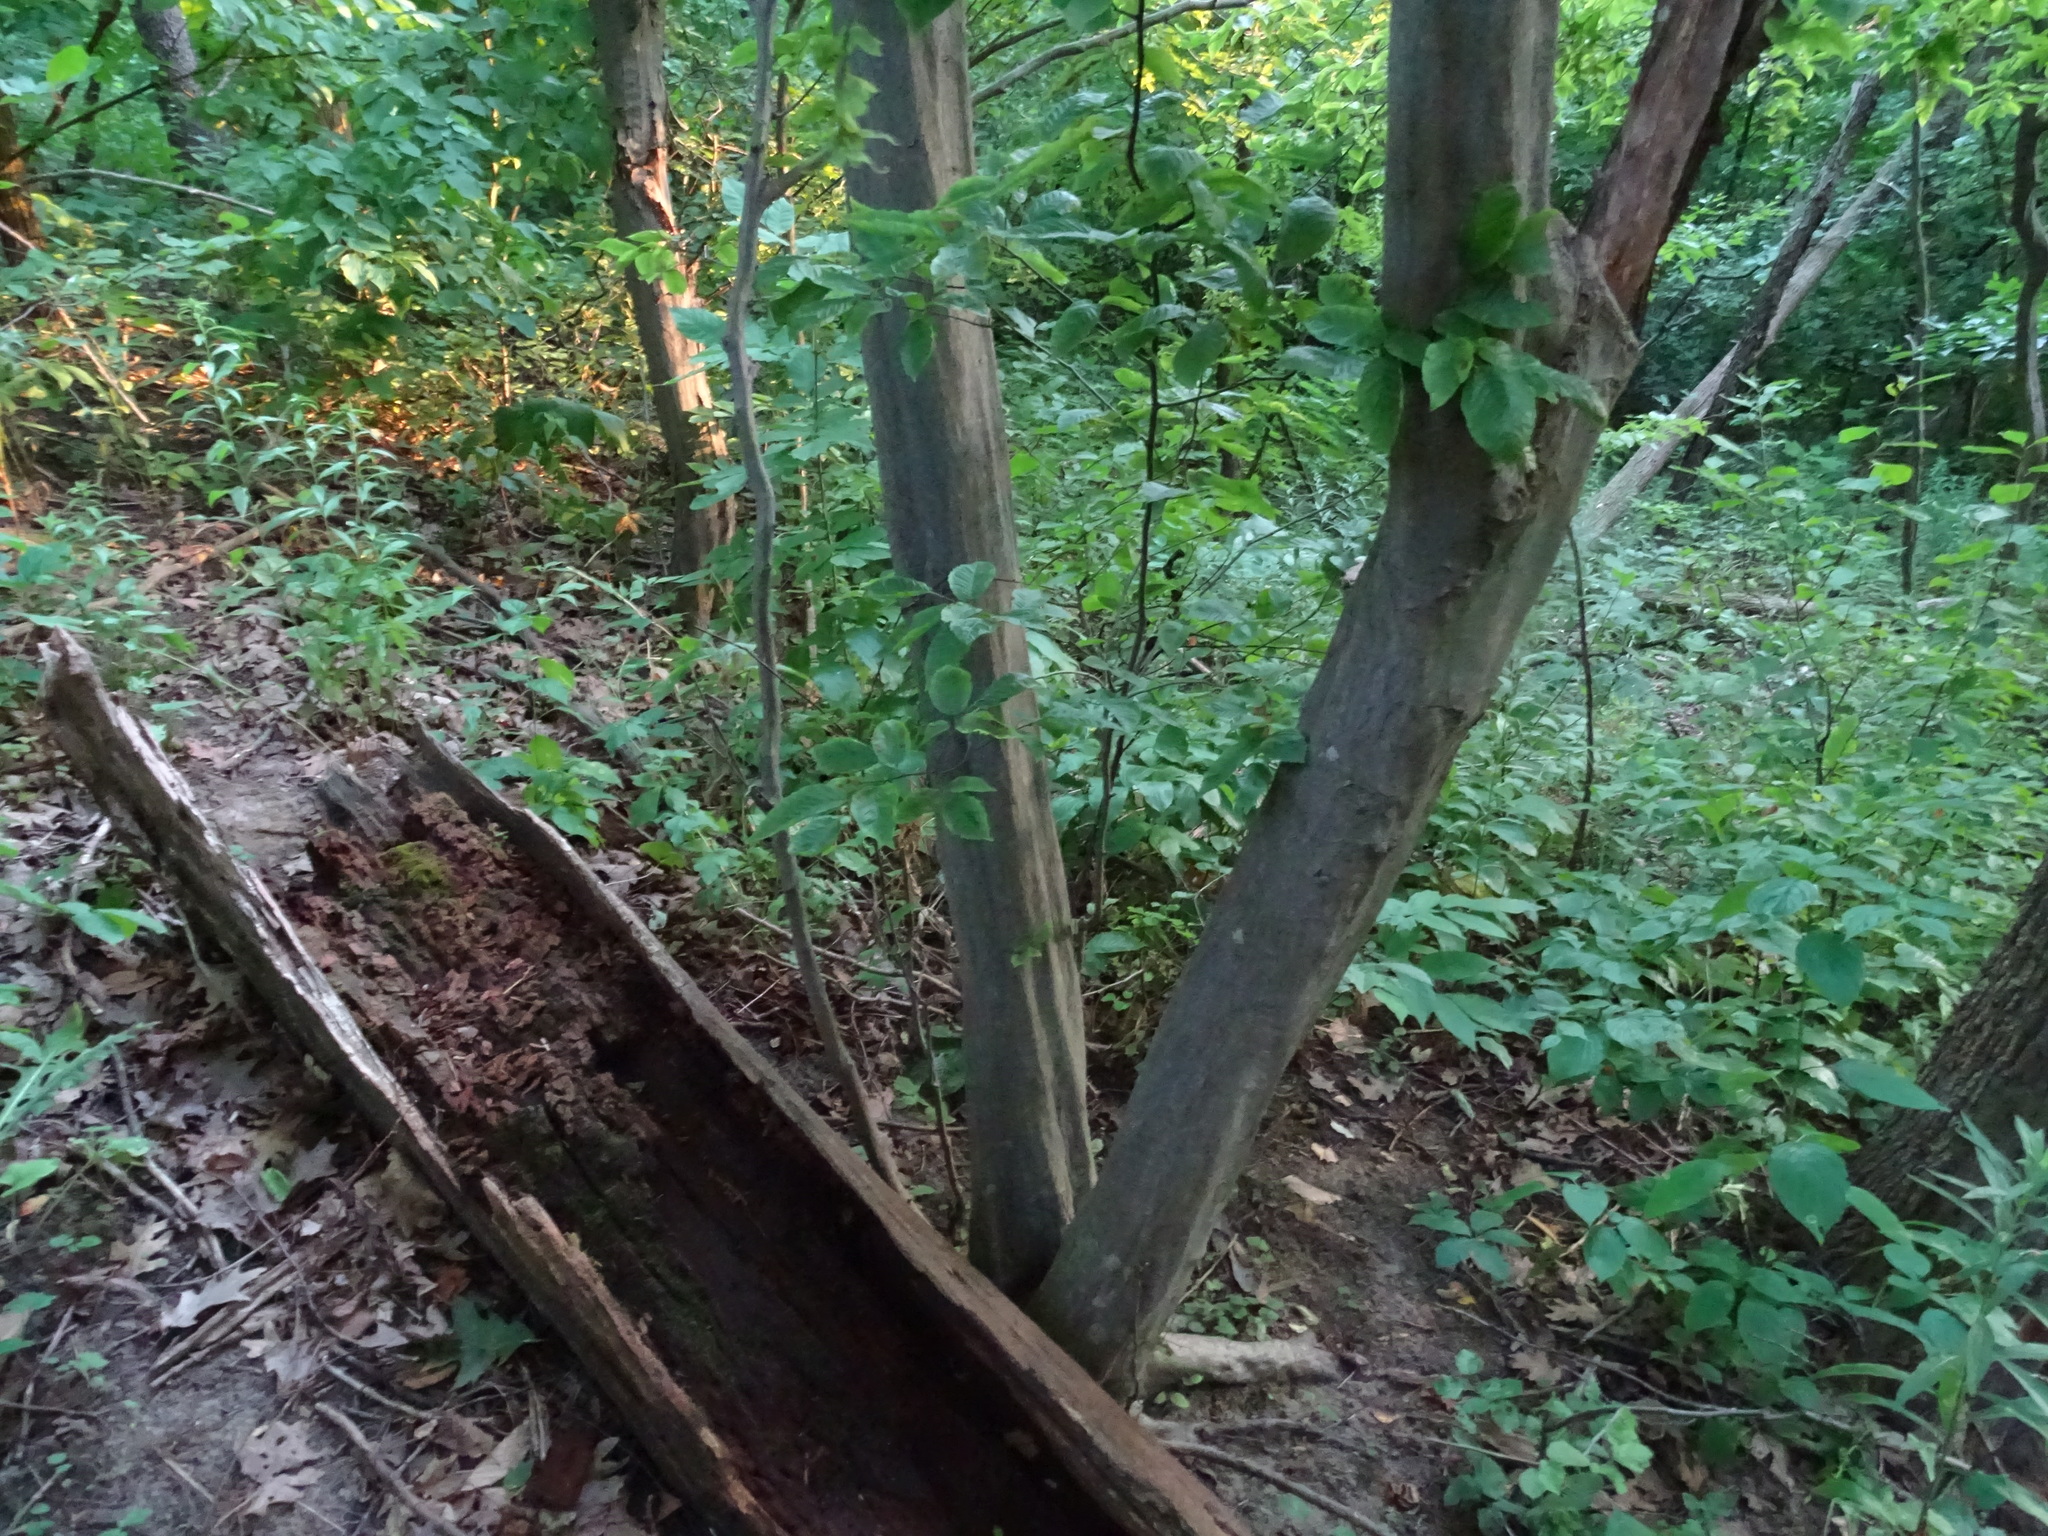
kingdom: Plantae
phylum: Tracheophyta
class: Magnoliopsida
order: Fagales
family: Betulaceae
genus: Carpinus
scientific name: Carpinus caroliniana
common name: American hornbeam
